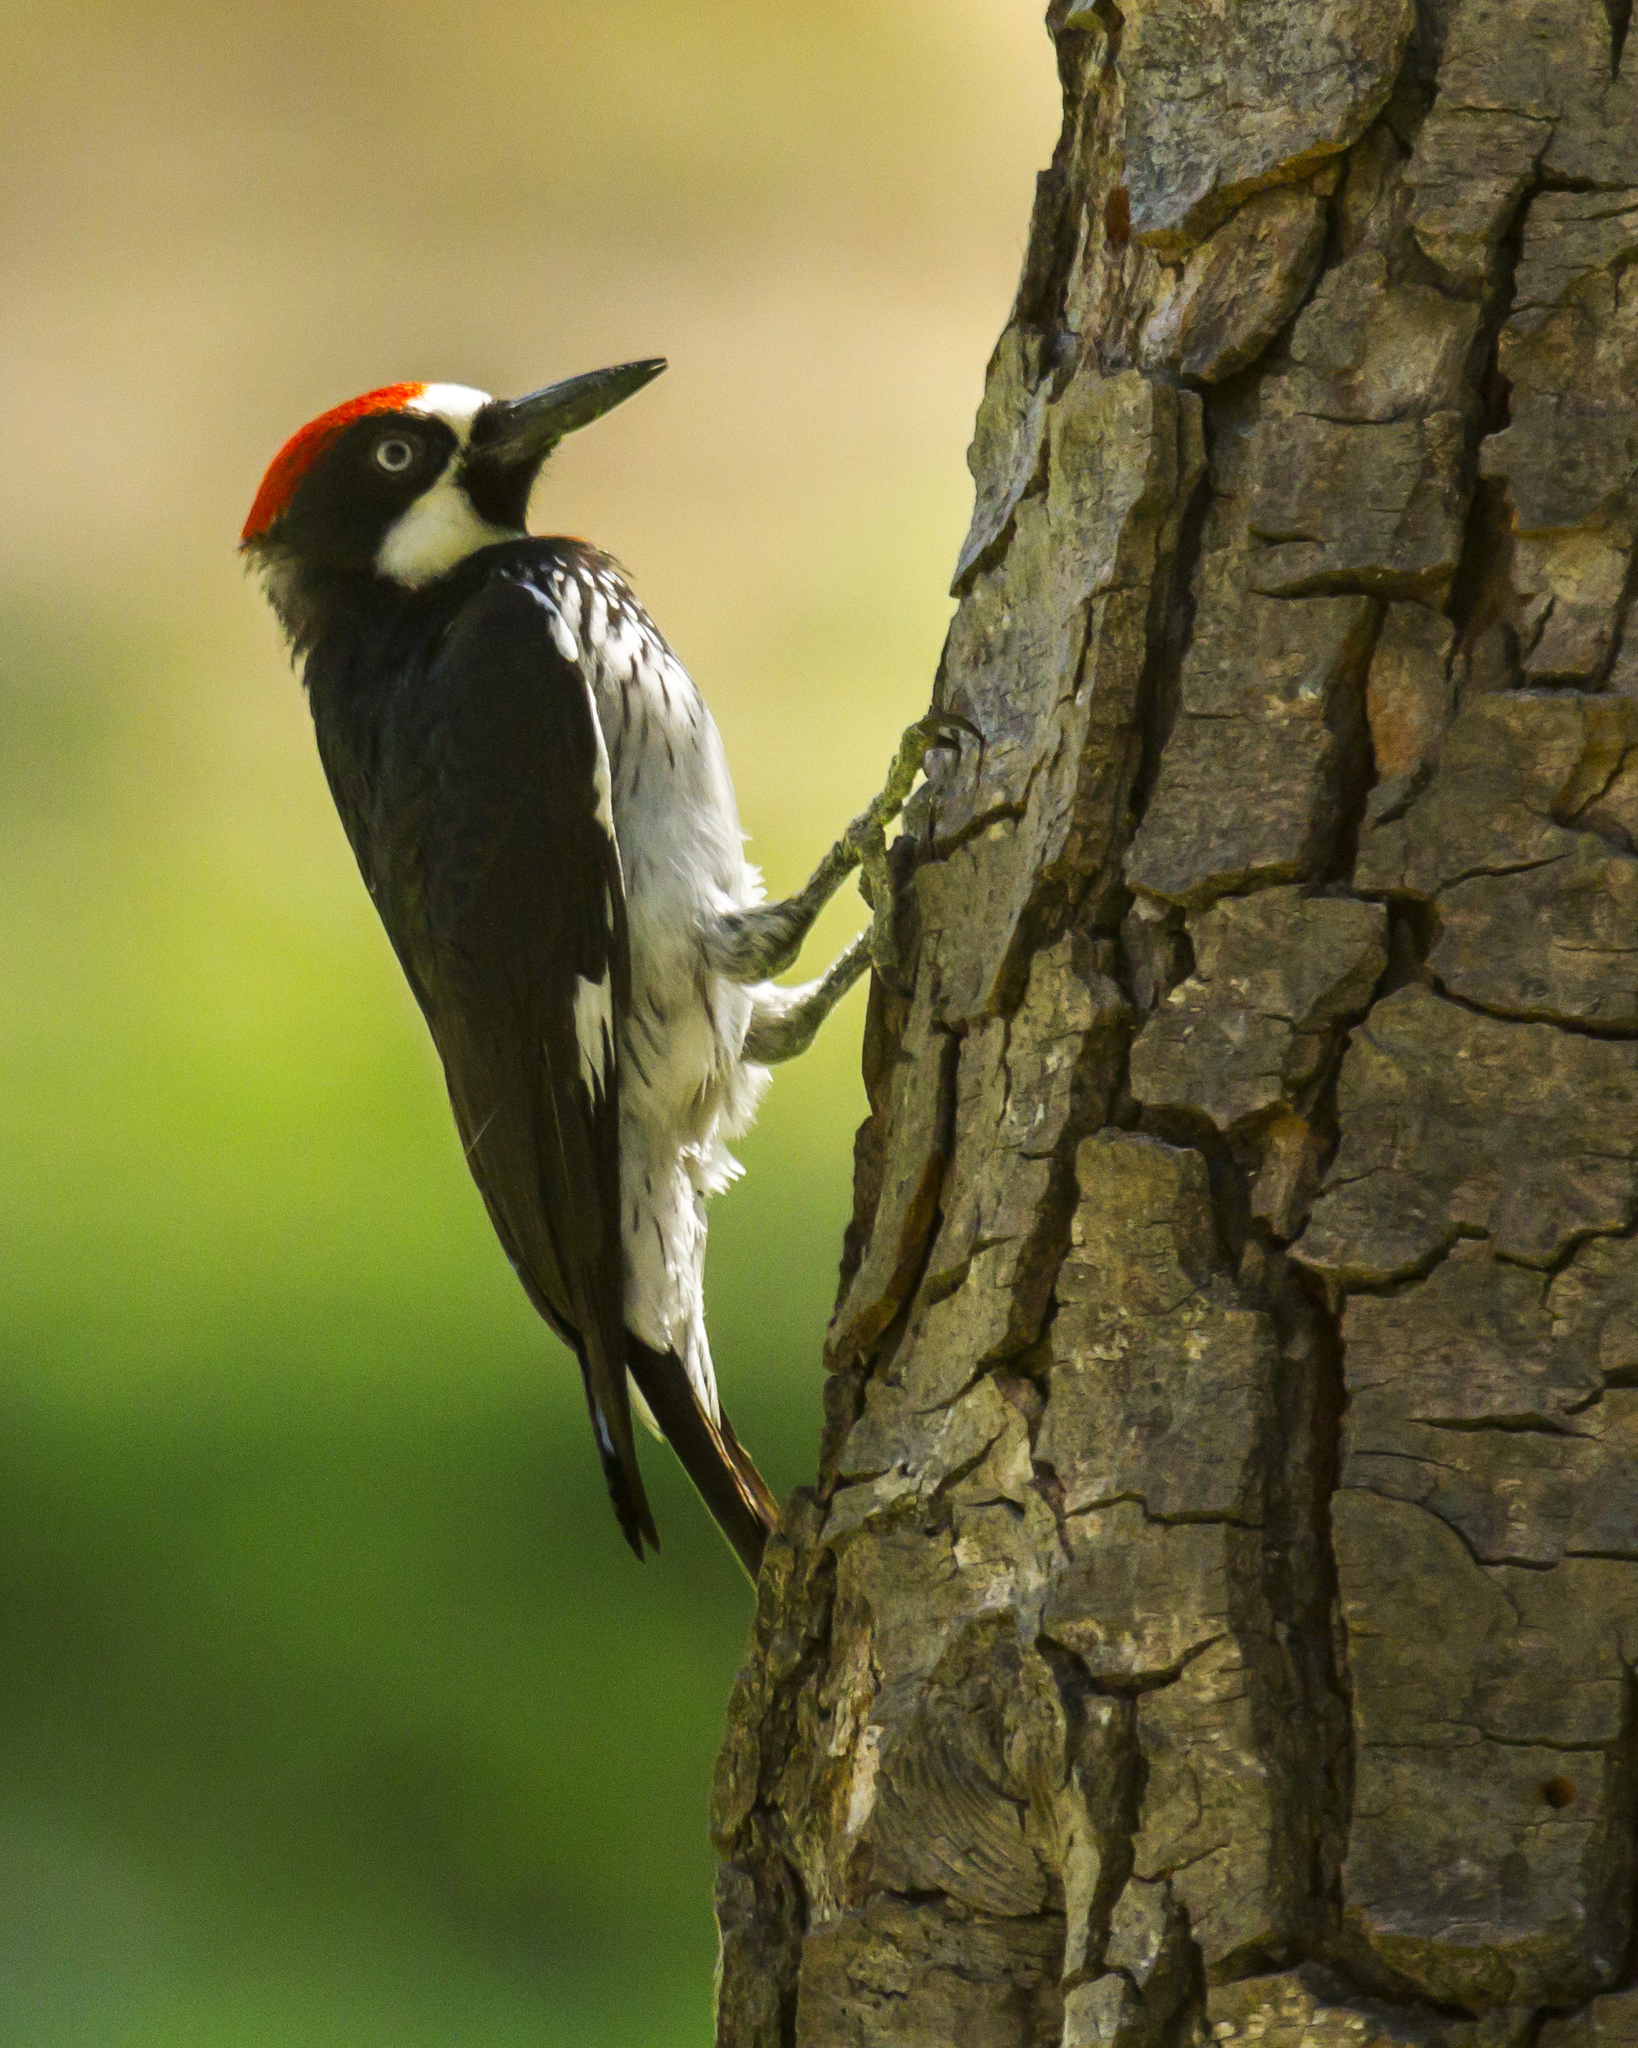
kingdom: Animalia
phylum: Chordata
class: Aves
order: Piciformes
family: Picidae
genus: Melanerpes
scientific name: Melanerpes formicivorus
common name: Acorn woodpecker
